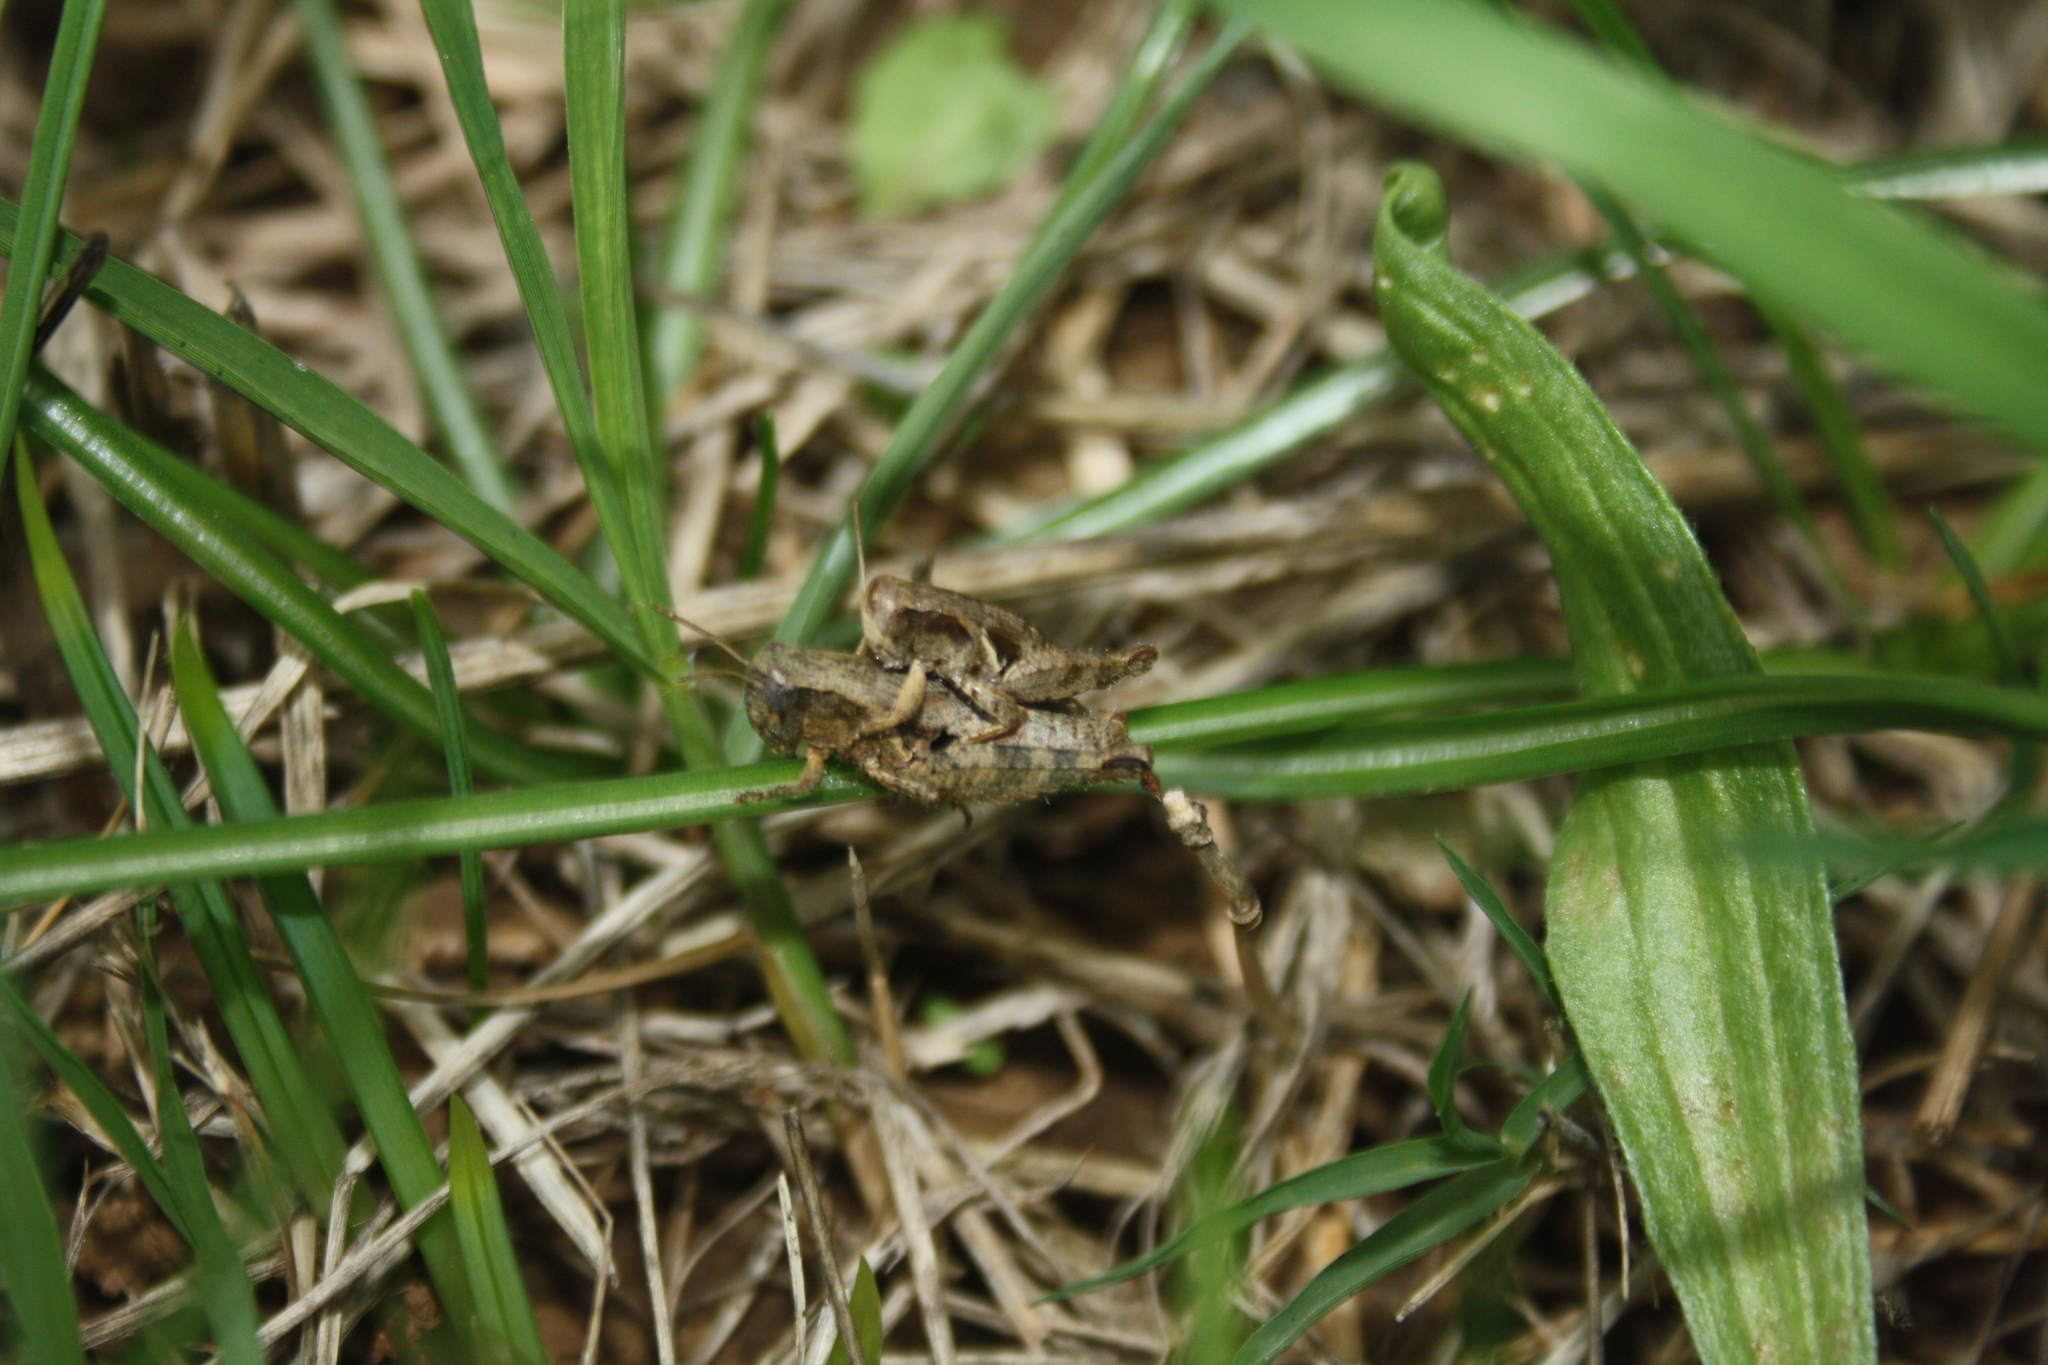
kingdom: Animalia
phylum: Arthropoda
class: Insecta
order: Orthoptera
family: Acrididae
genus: Pezotettix
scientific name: Pezotettix giornae
